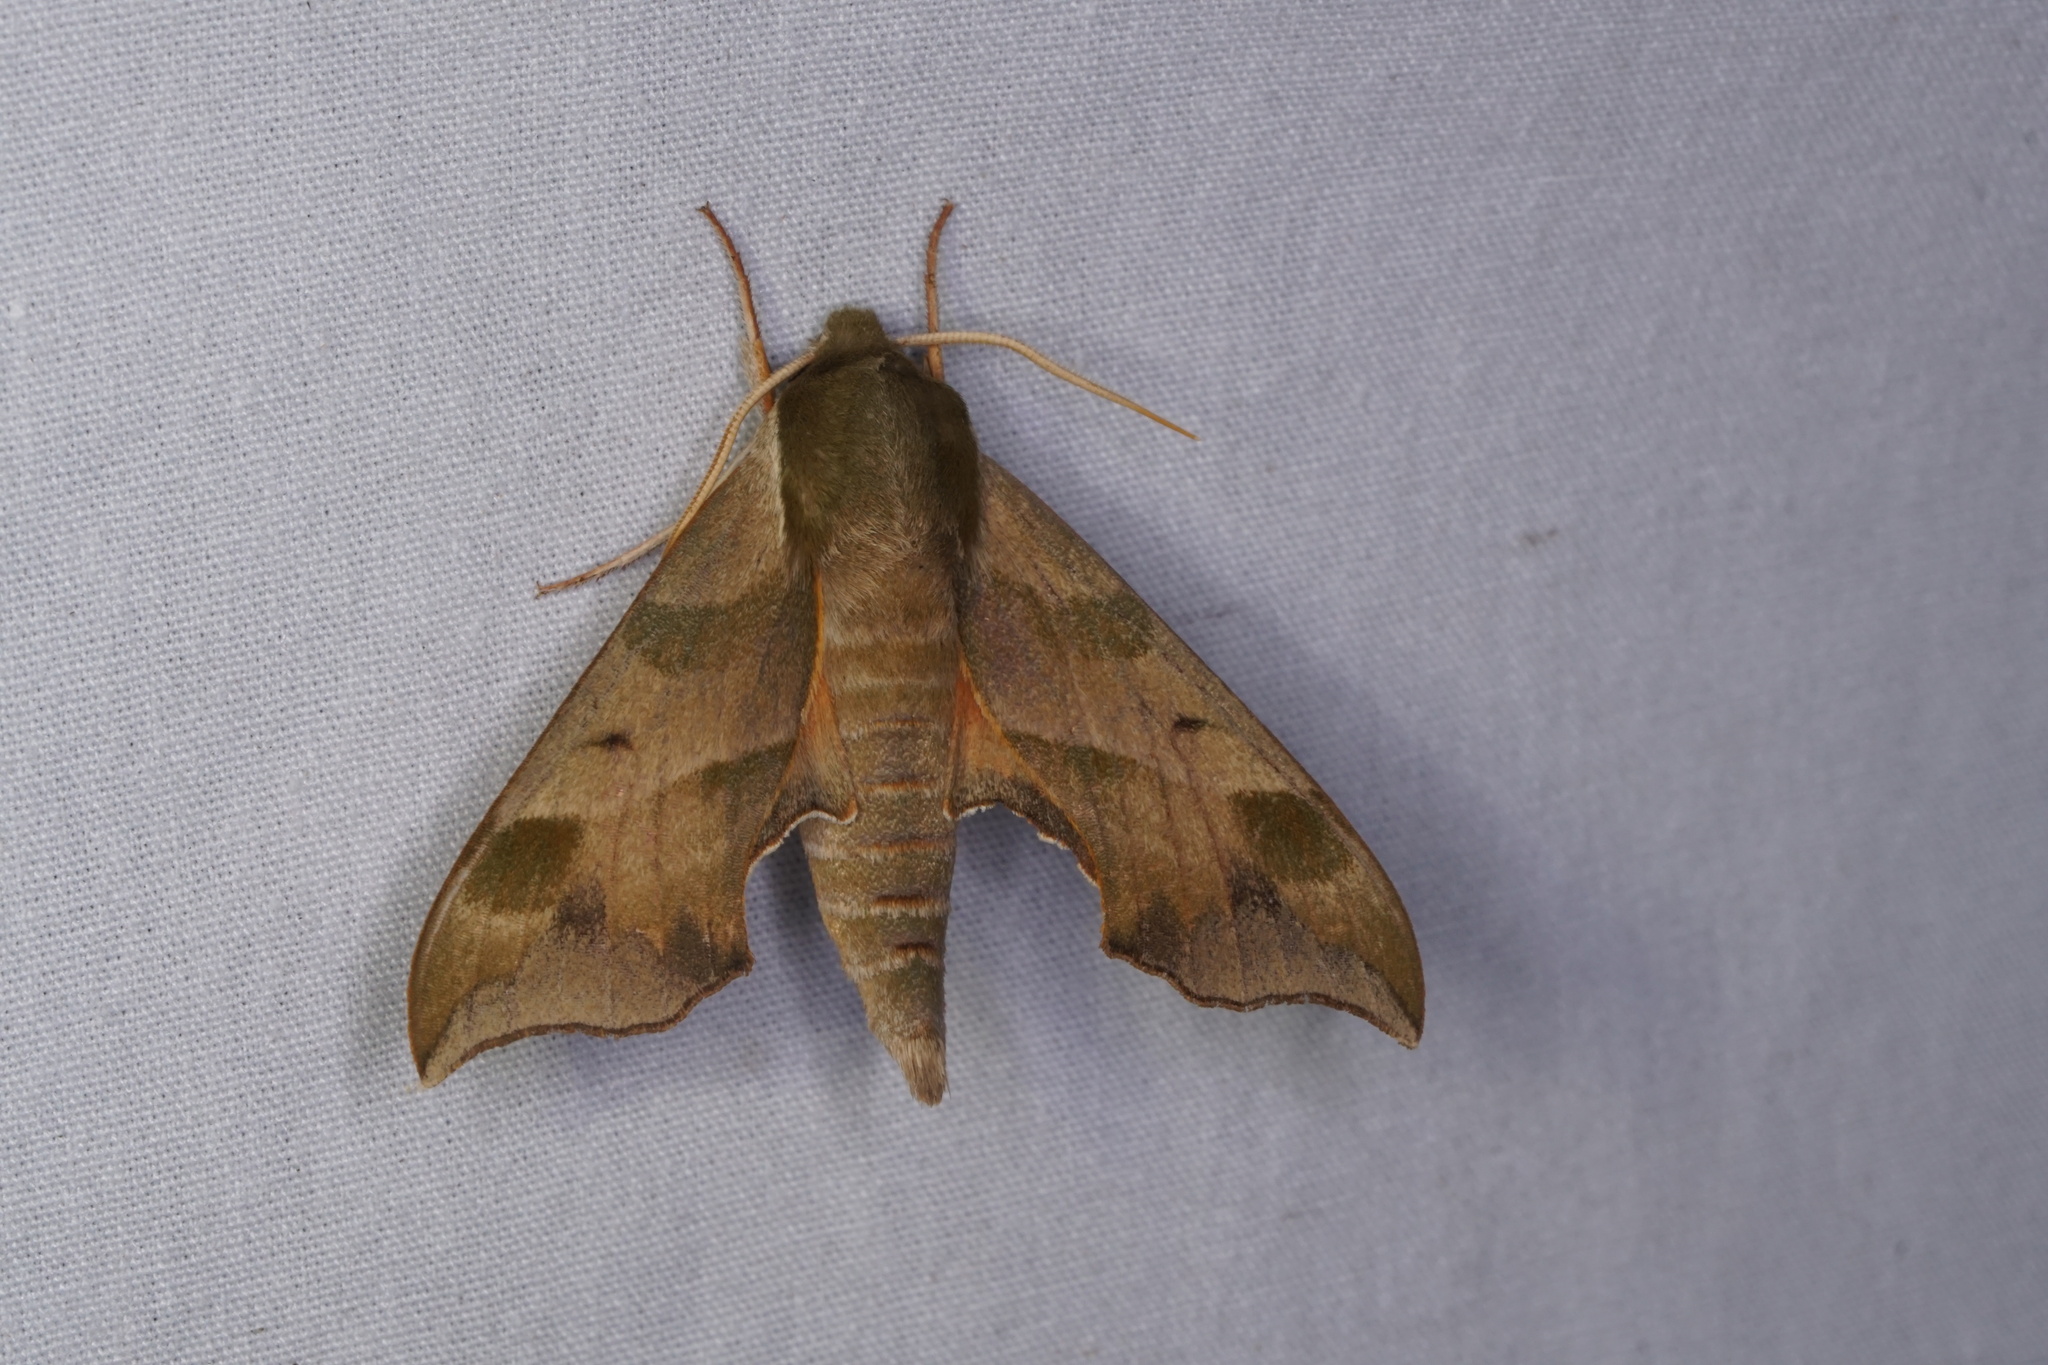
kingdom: Animalia
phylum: Arthropoda
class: Insecta
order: Lepidoptera
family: Sphingidae
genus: Darapsa
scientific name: Darapsa myron
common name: Hog sphinx
